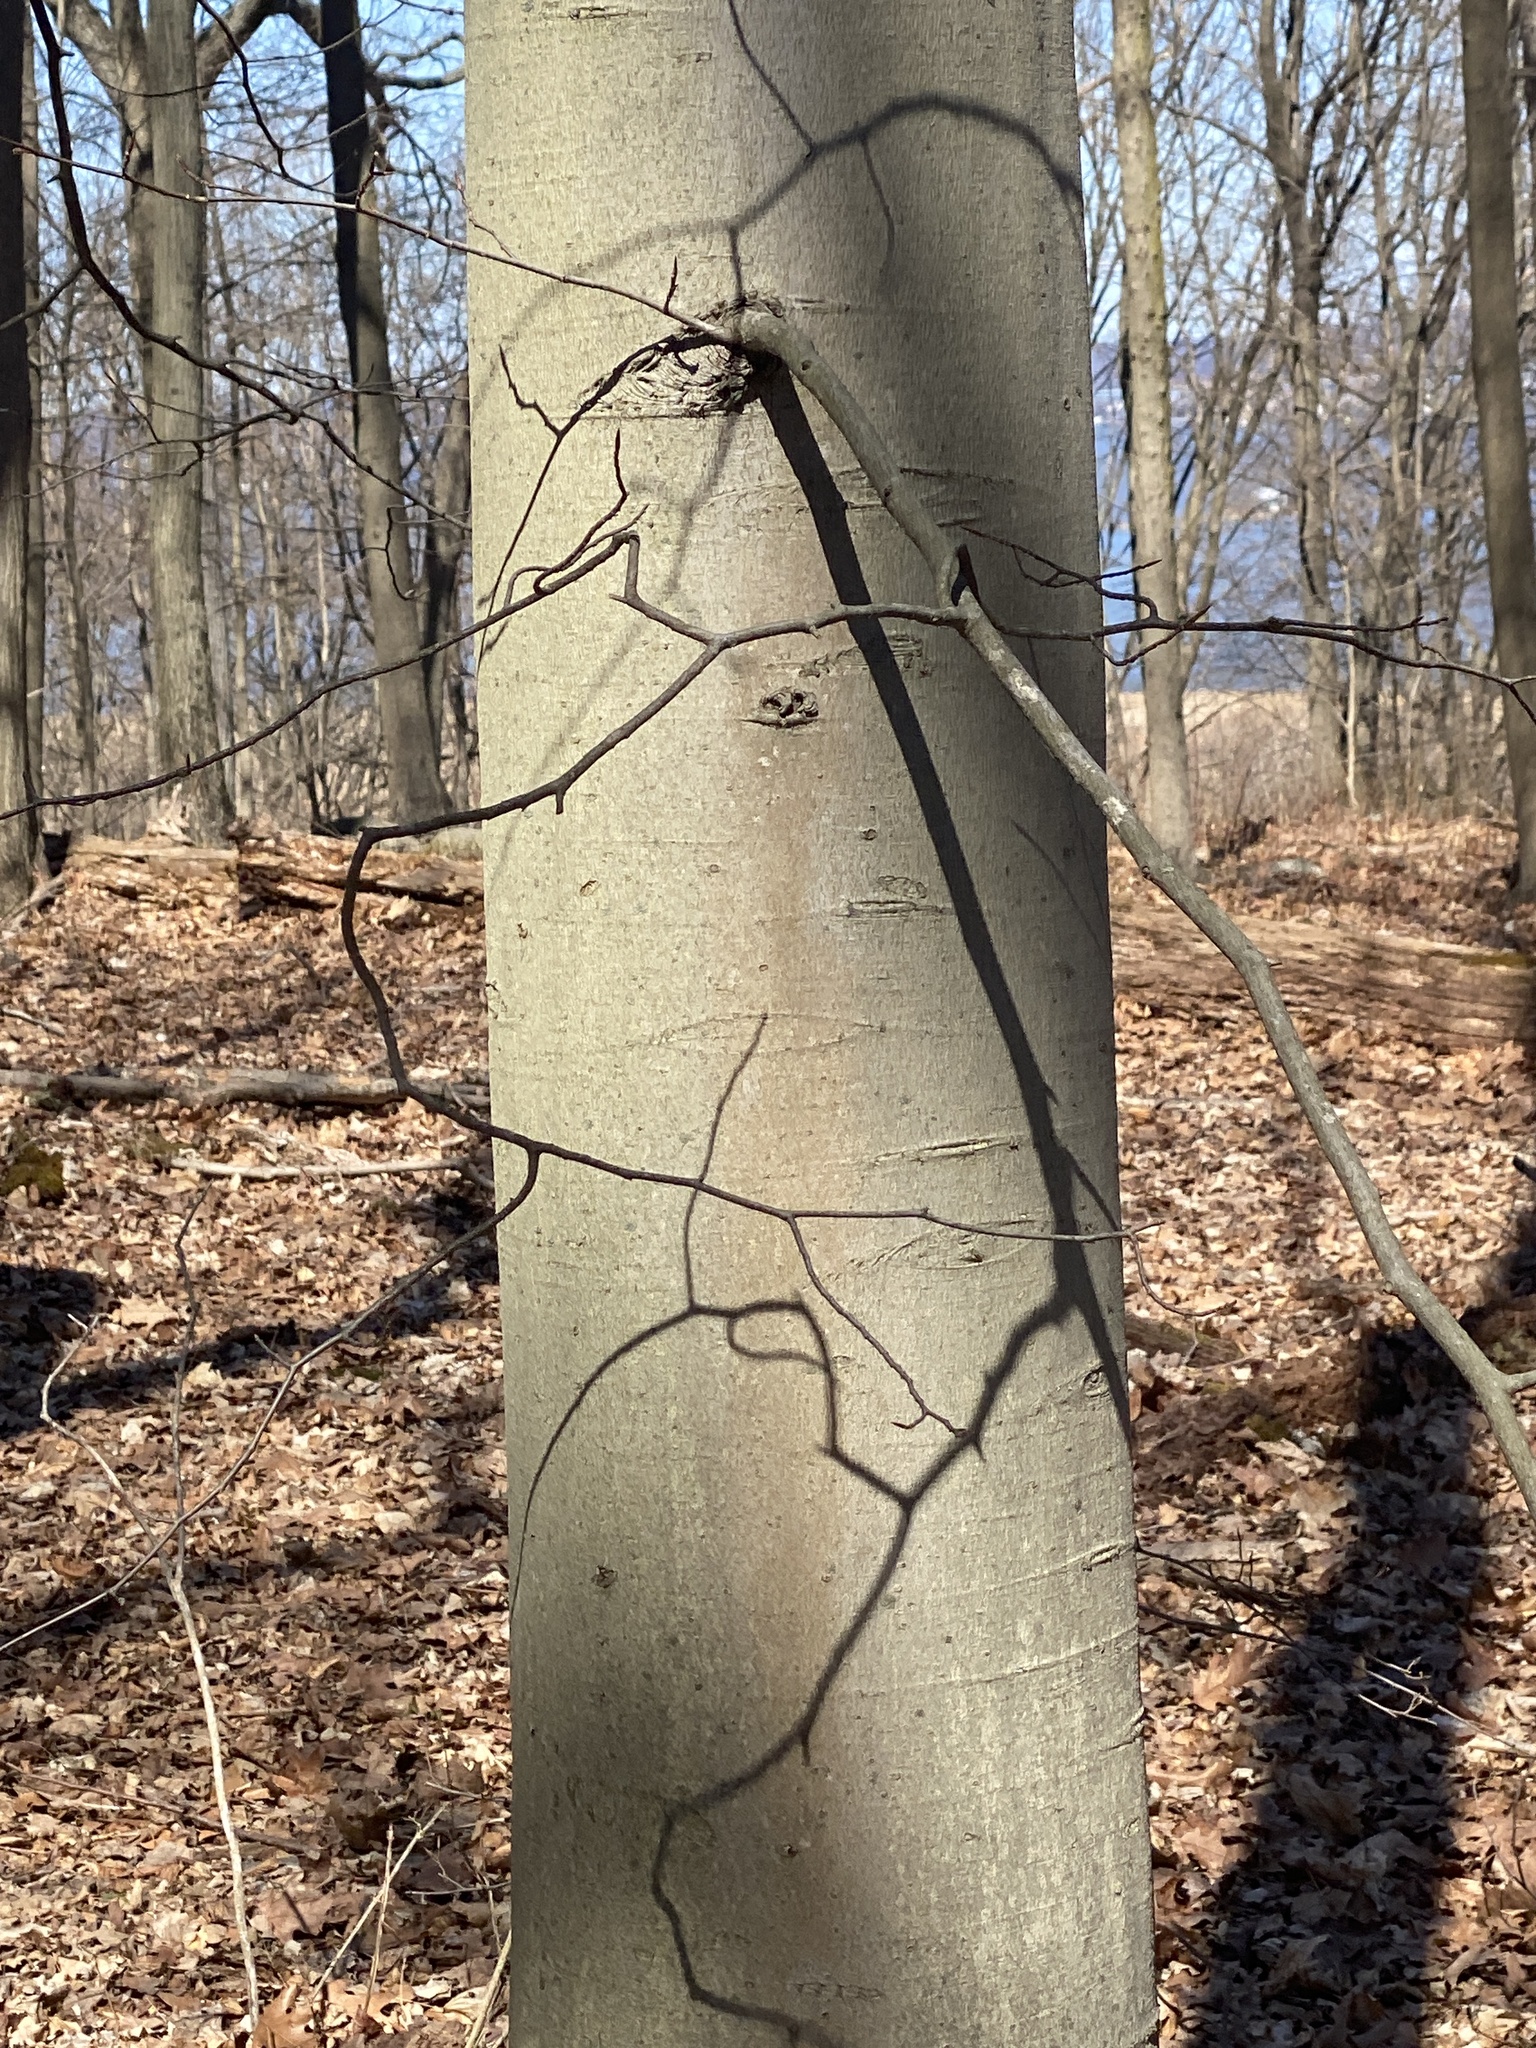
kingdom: Plantae
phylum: Tracheophyta
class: Magnoliopsida
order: Fagales
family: Fagaceae
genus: Fagus
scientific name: Fagus grandifolia
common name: American beech
